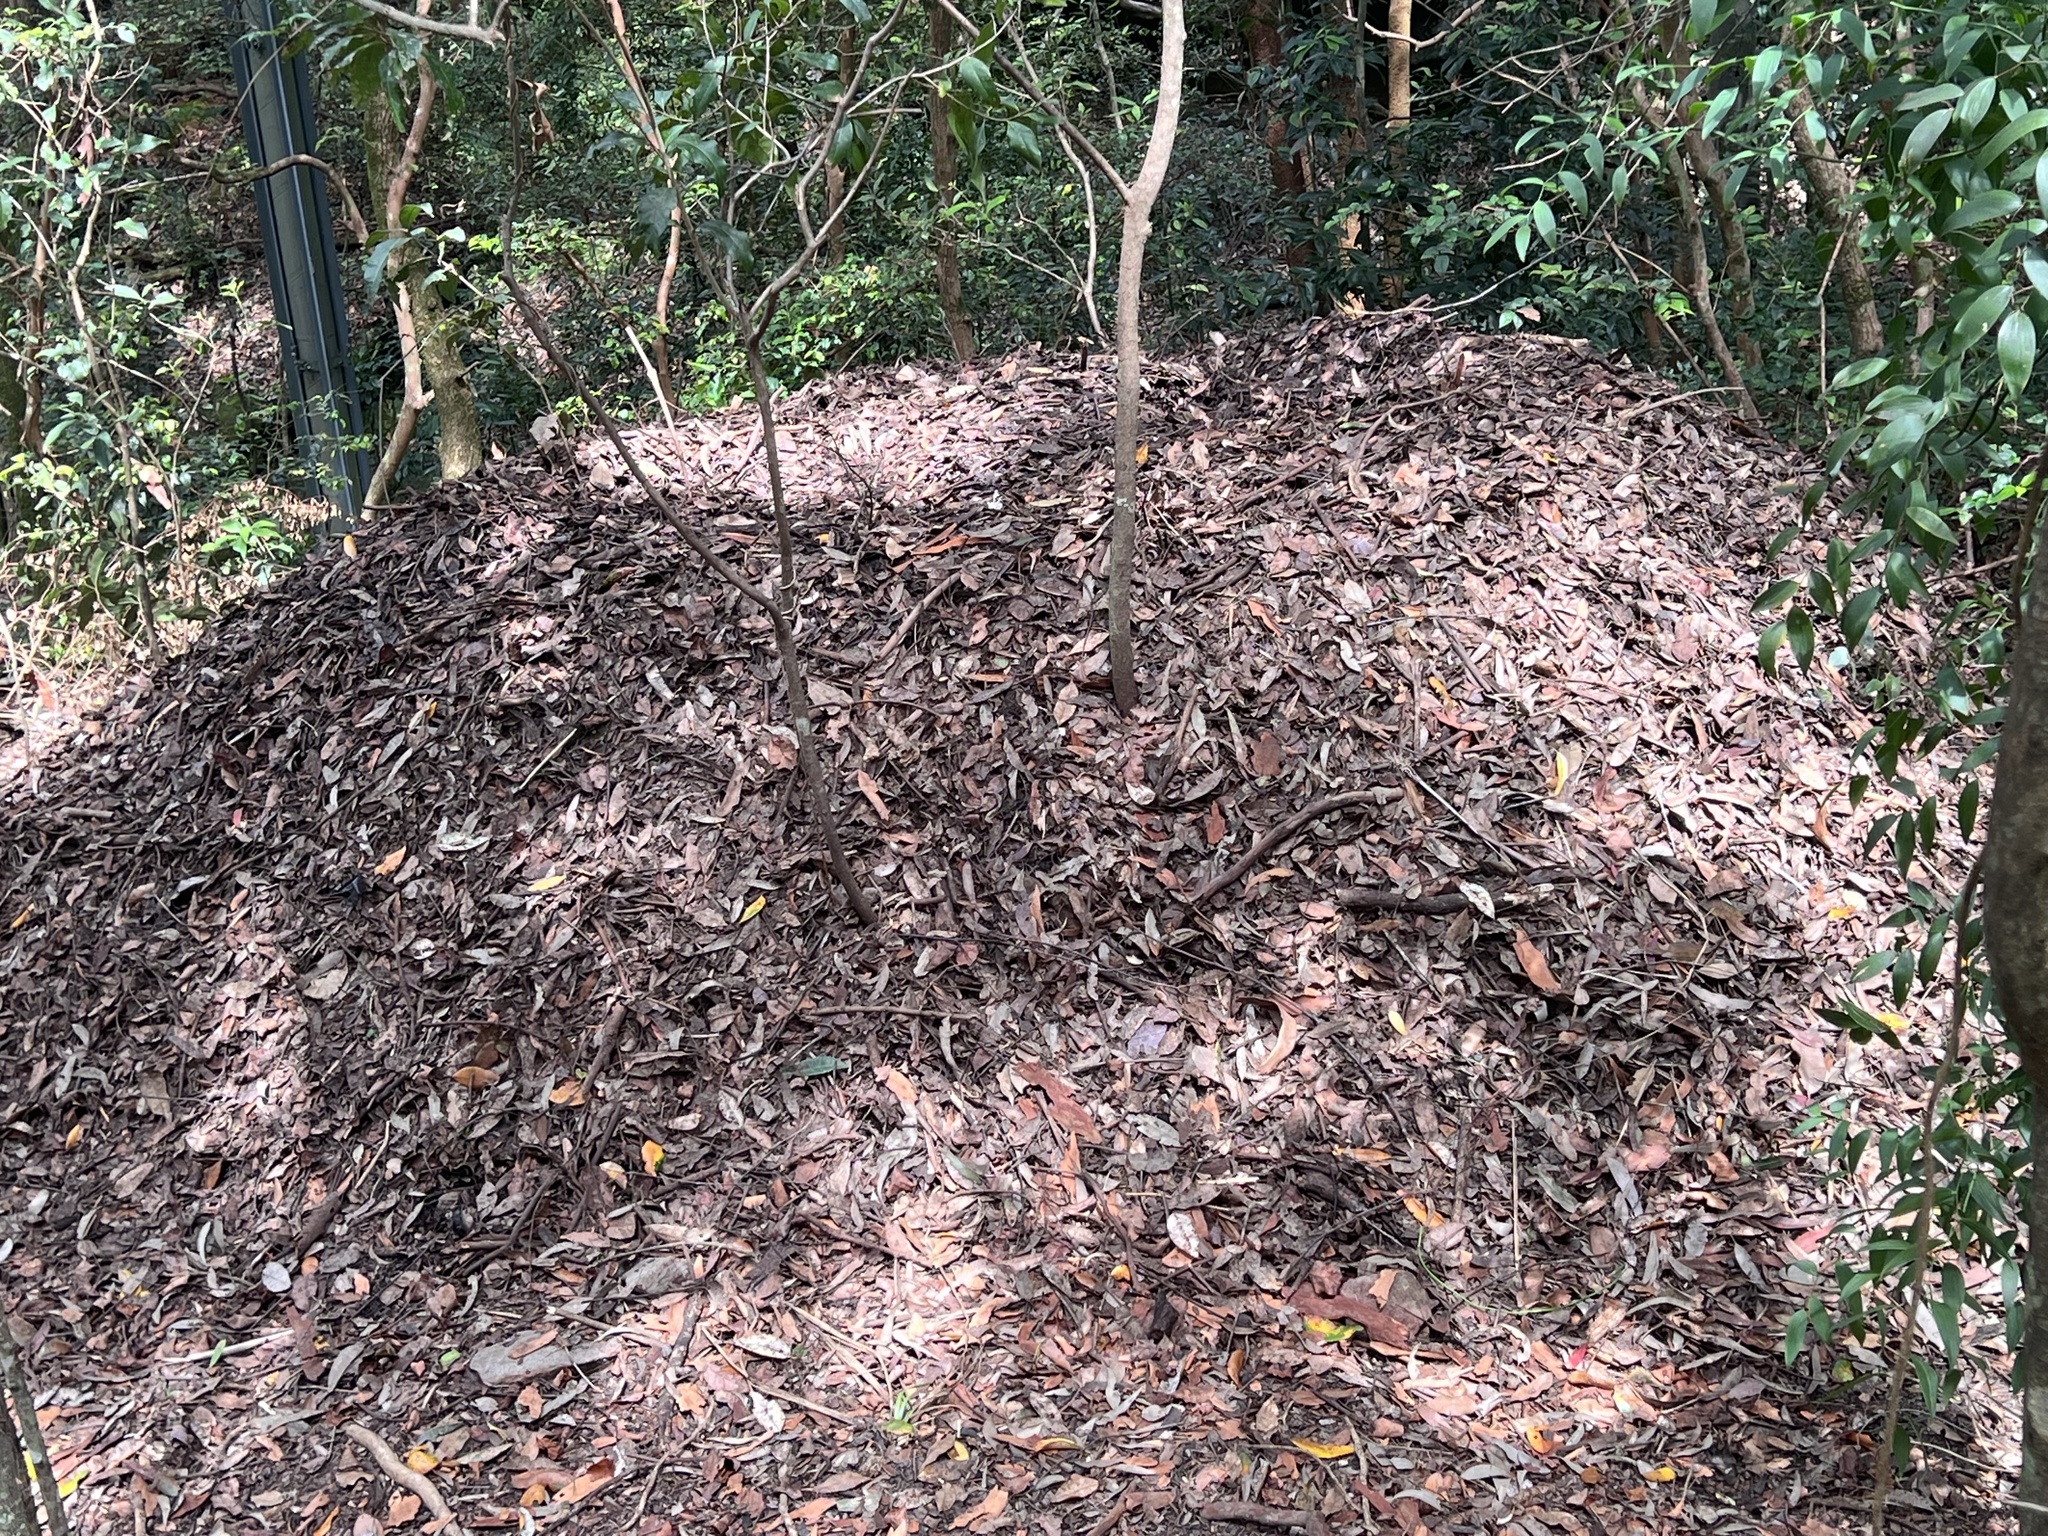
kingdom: Animalia
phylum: Chordata
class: Aves
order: Galliformes
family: Megapodiidae
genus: Alectura
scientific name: Alectura lathami
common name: Australian brushturkey
